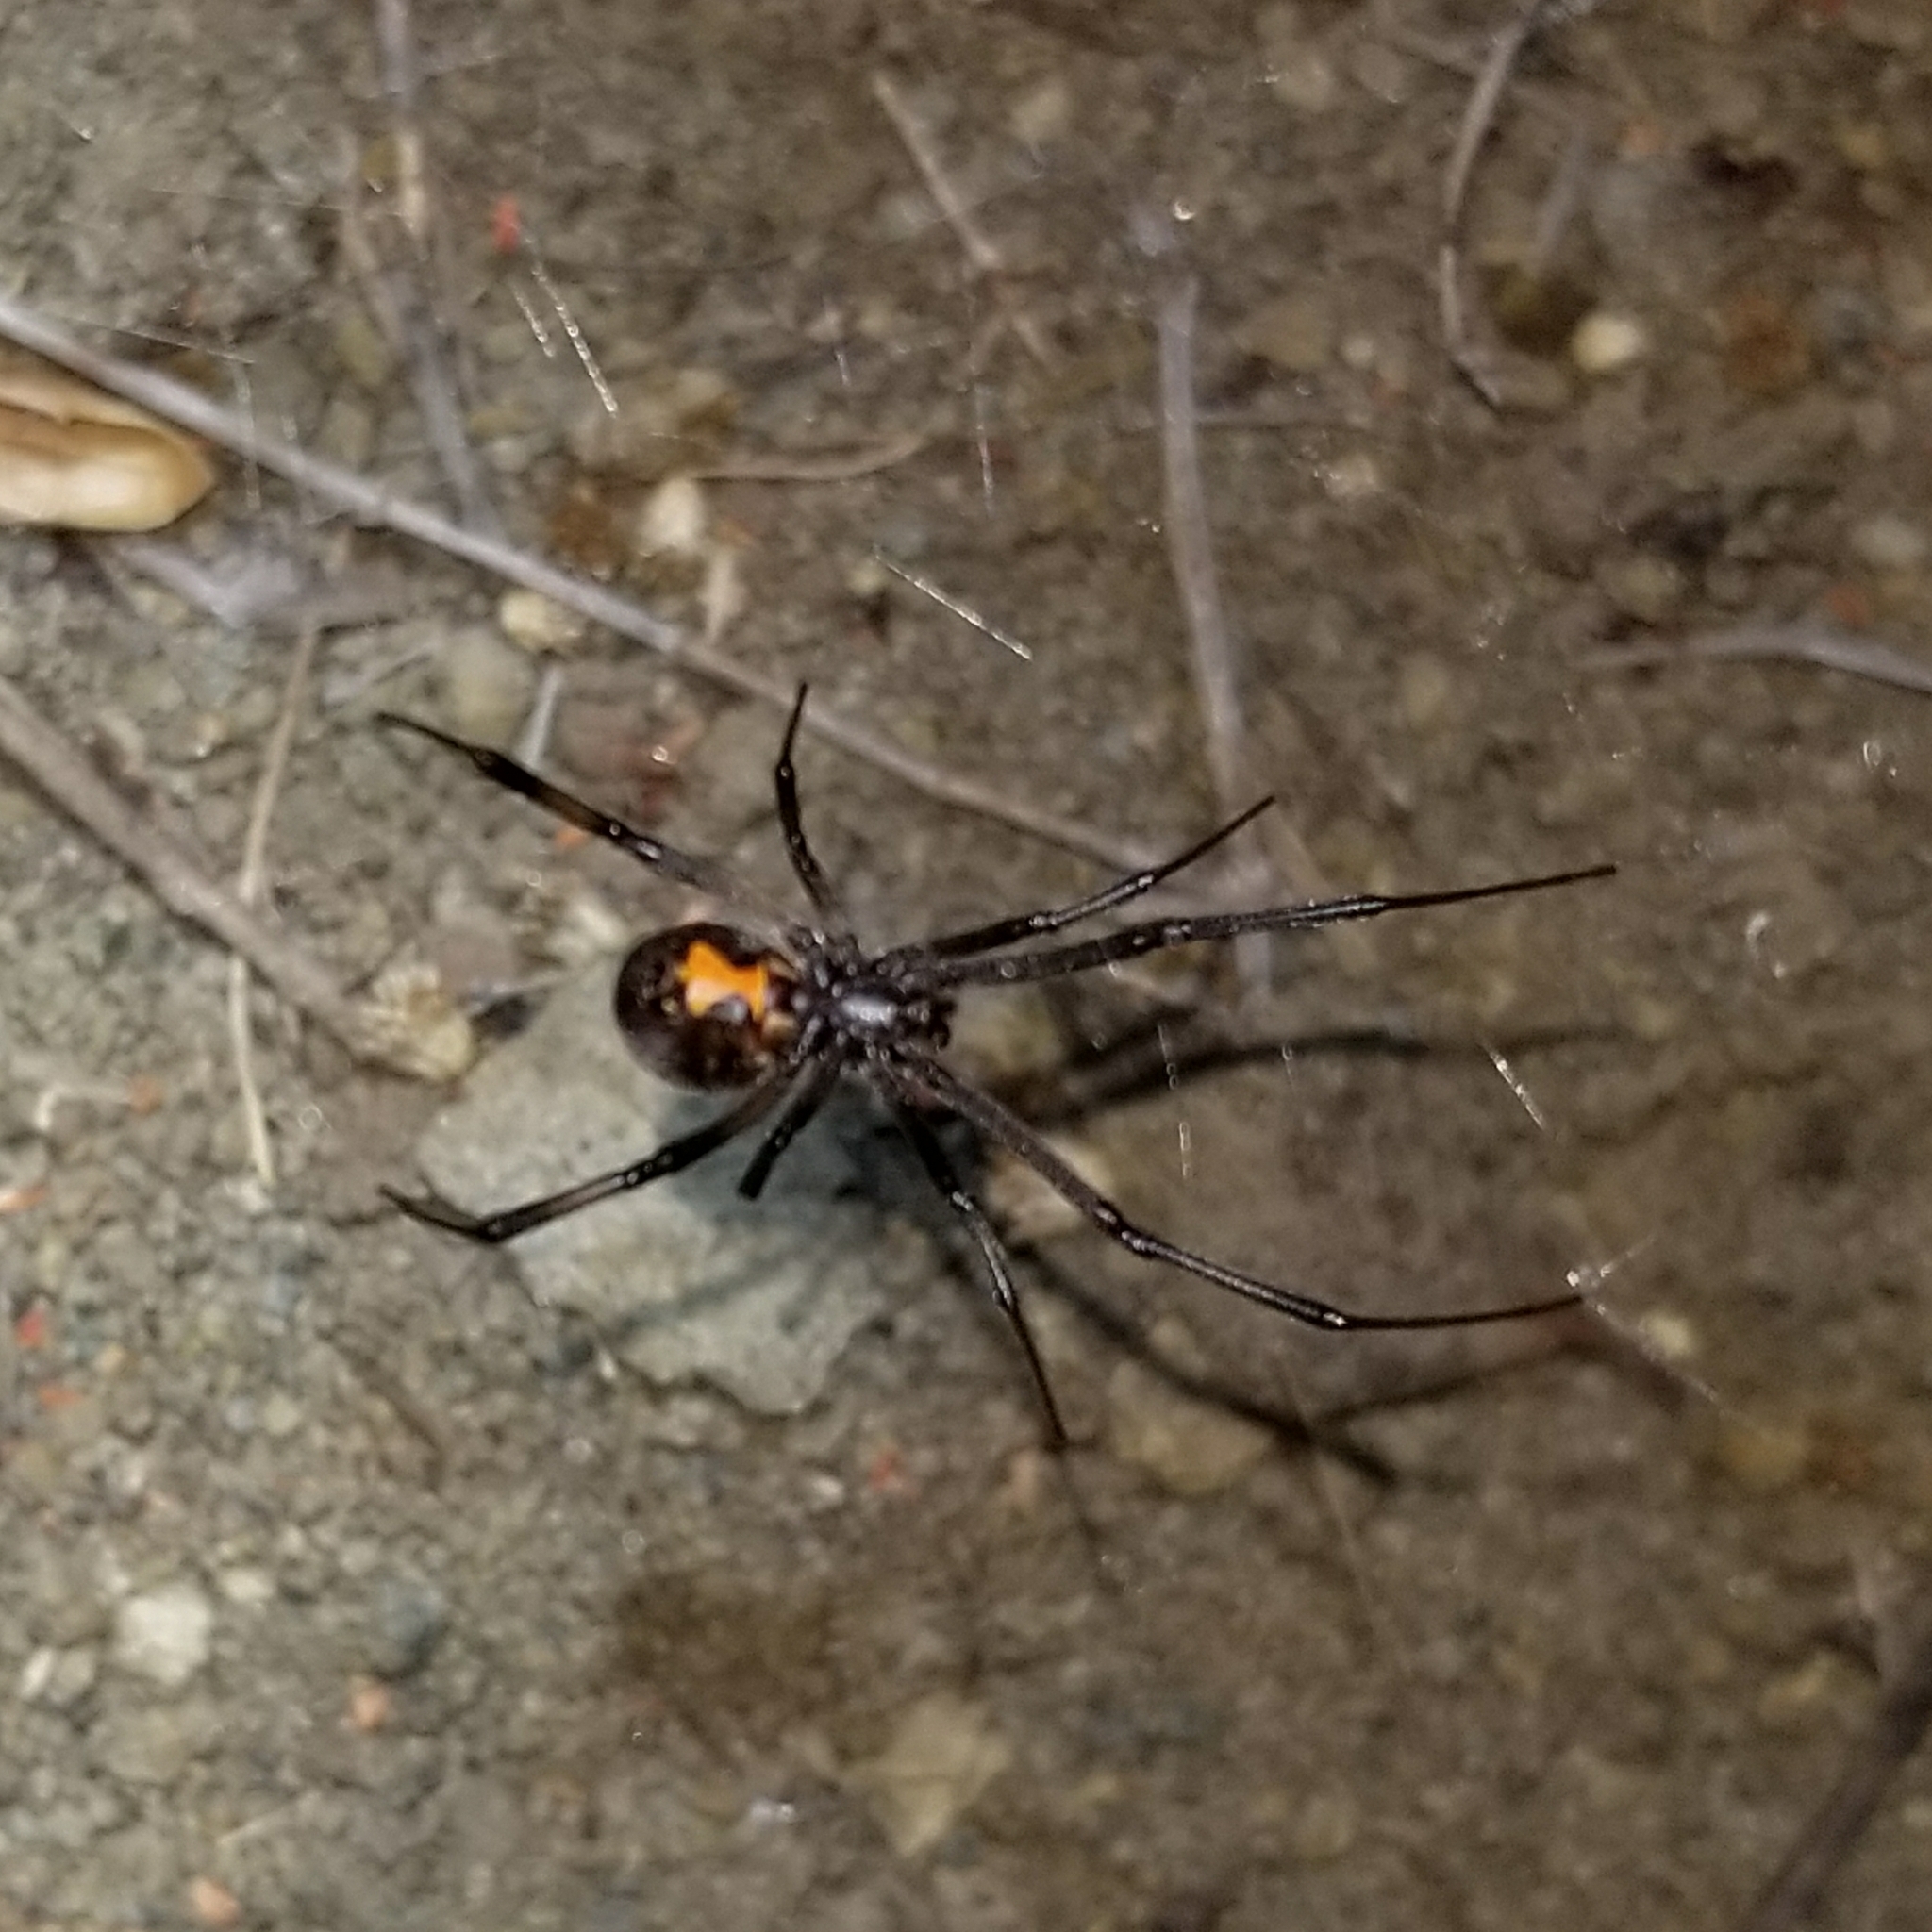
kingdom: Animalia
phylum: Arthropoda
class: Arachnida
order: Araneae
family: Theridiidae
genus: Latrodectus
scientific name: Latrodectus geometricus
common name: Brown widow spider
